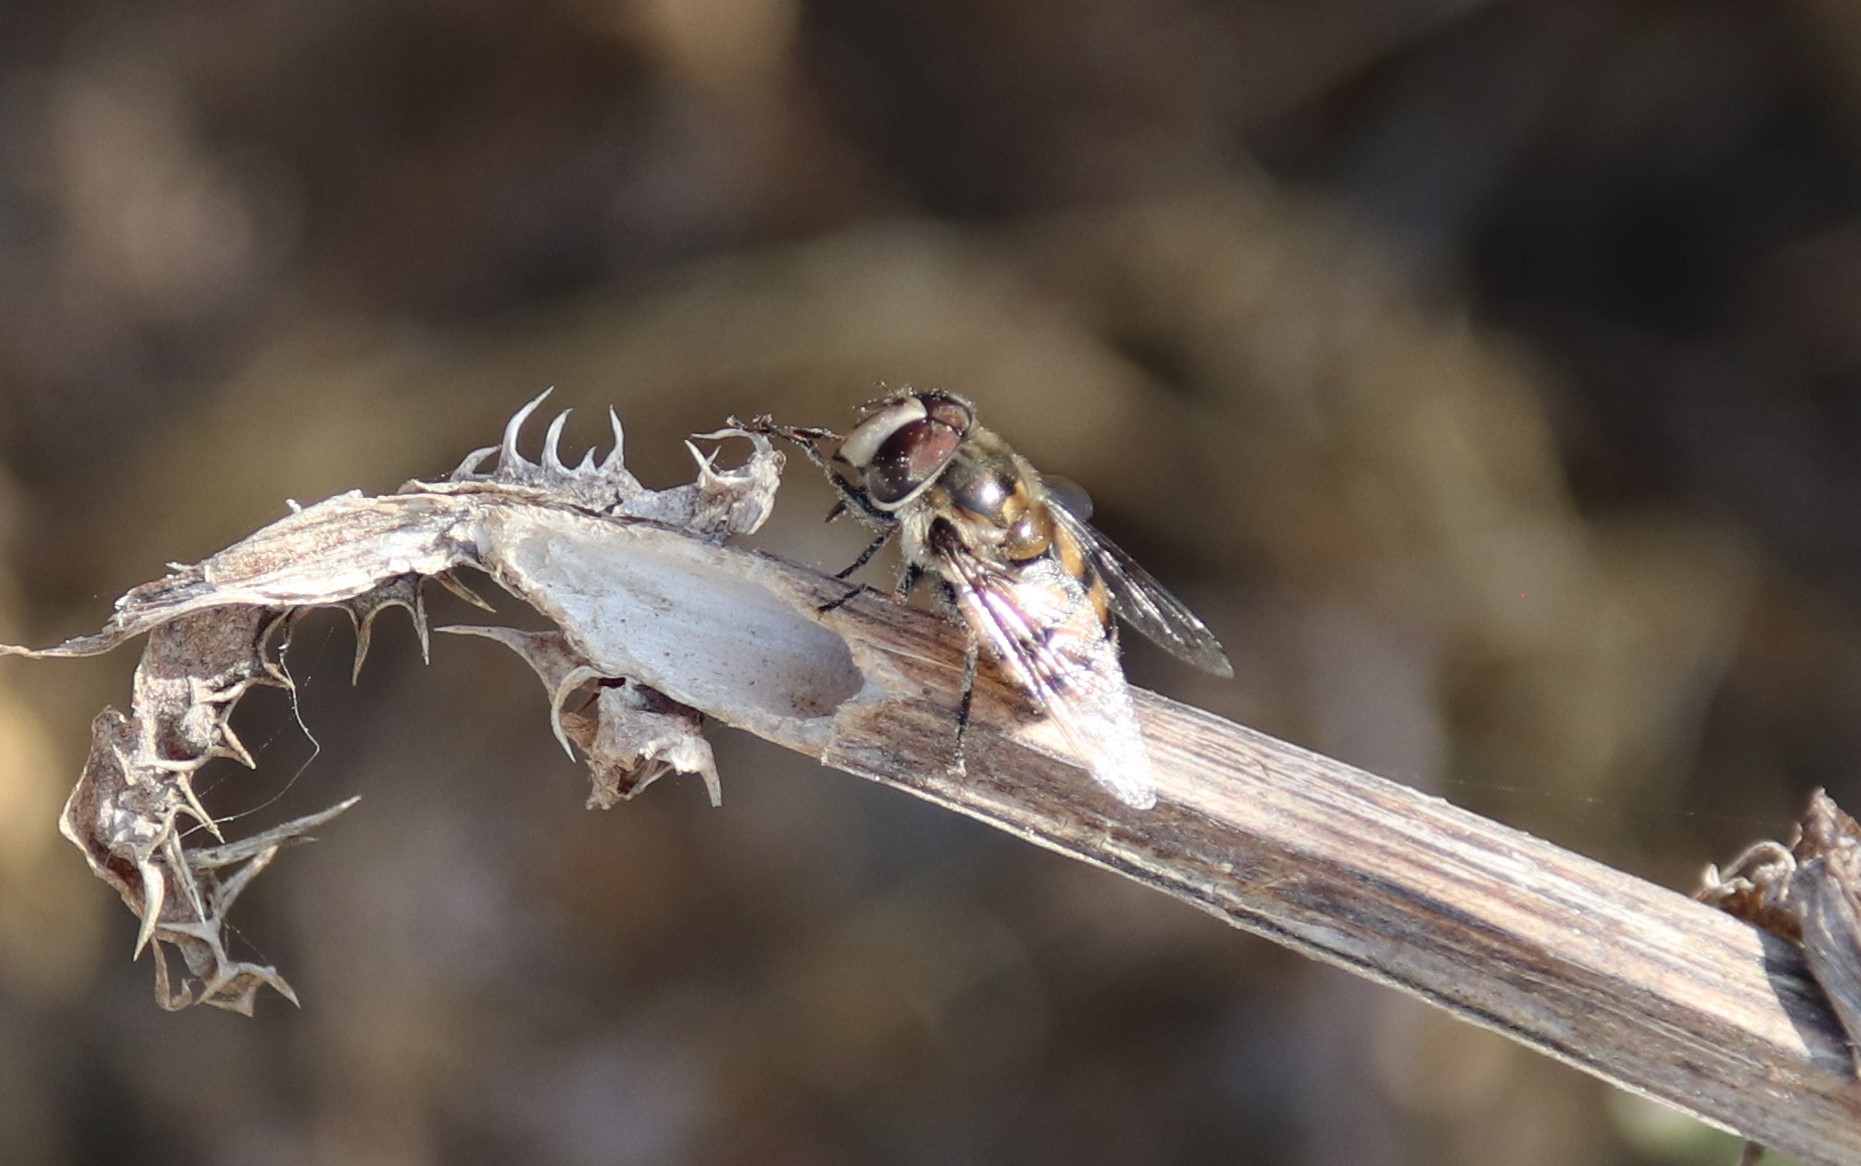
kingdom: Animalia
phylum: Arthropoda
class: Insecta
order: Diptera
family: Syrphidae
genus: Copestylum
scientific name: Copestylum avidum
